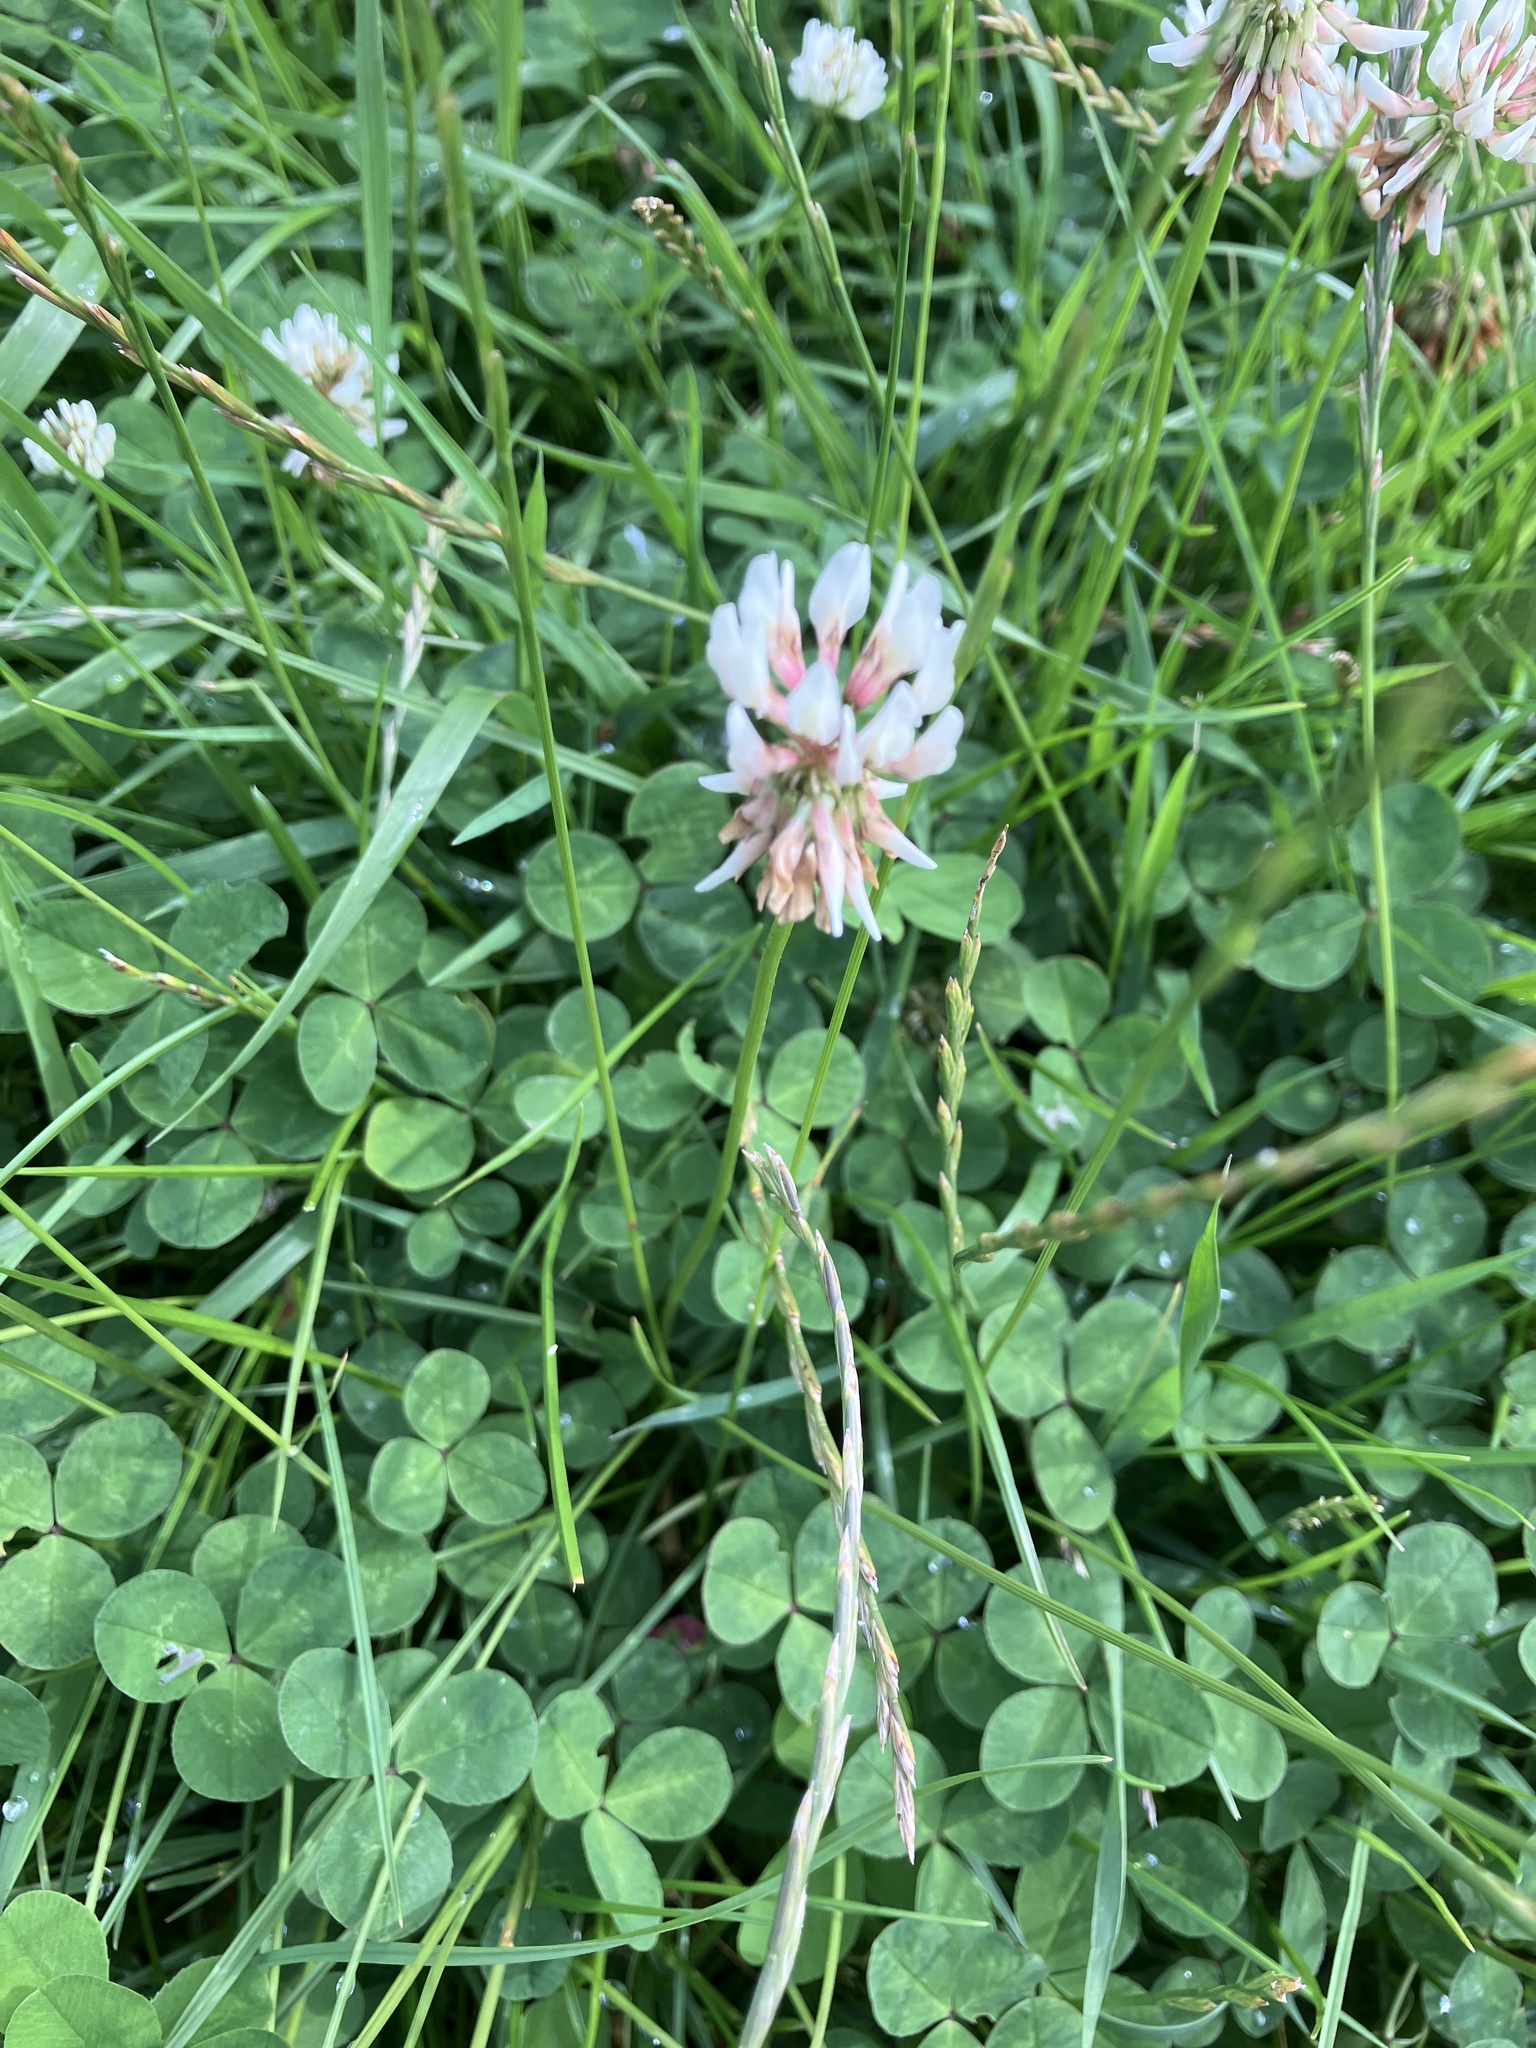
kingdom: Plantae
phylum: Tracheophyta
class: Magnoliopsida
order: Fabales
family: Fabaceae
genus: Trifolium
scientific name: Trifolium repens
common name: White clover
